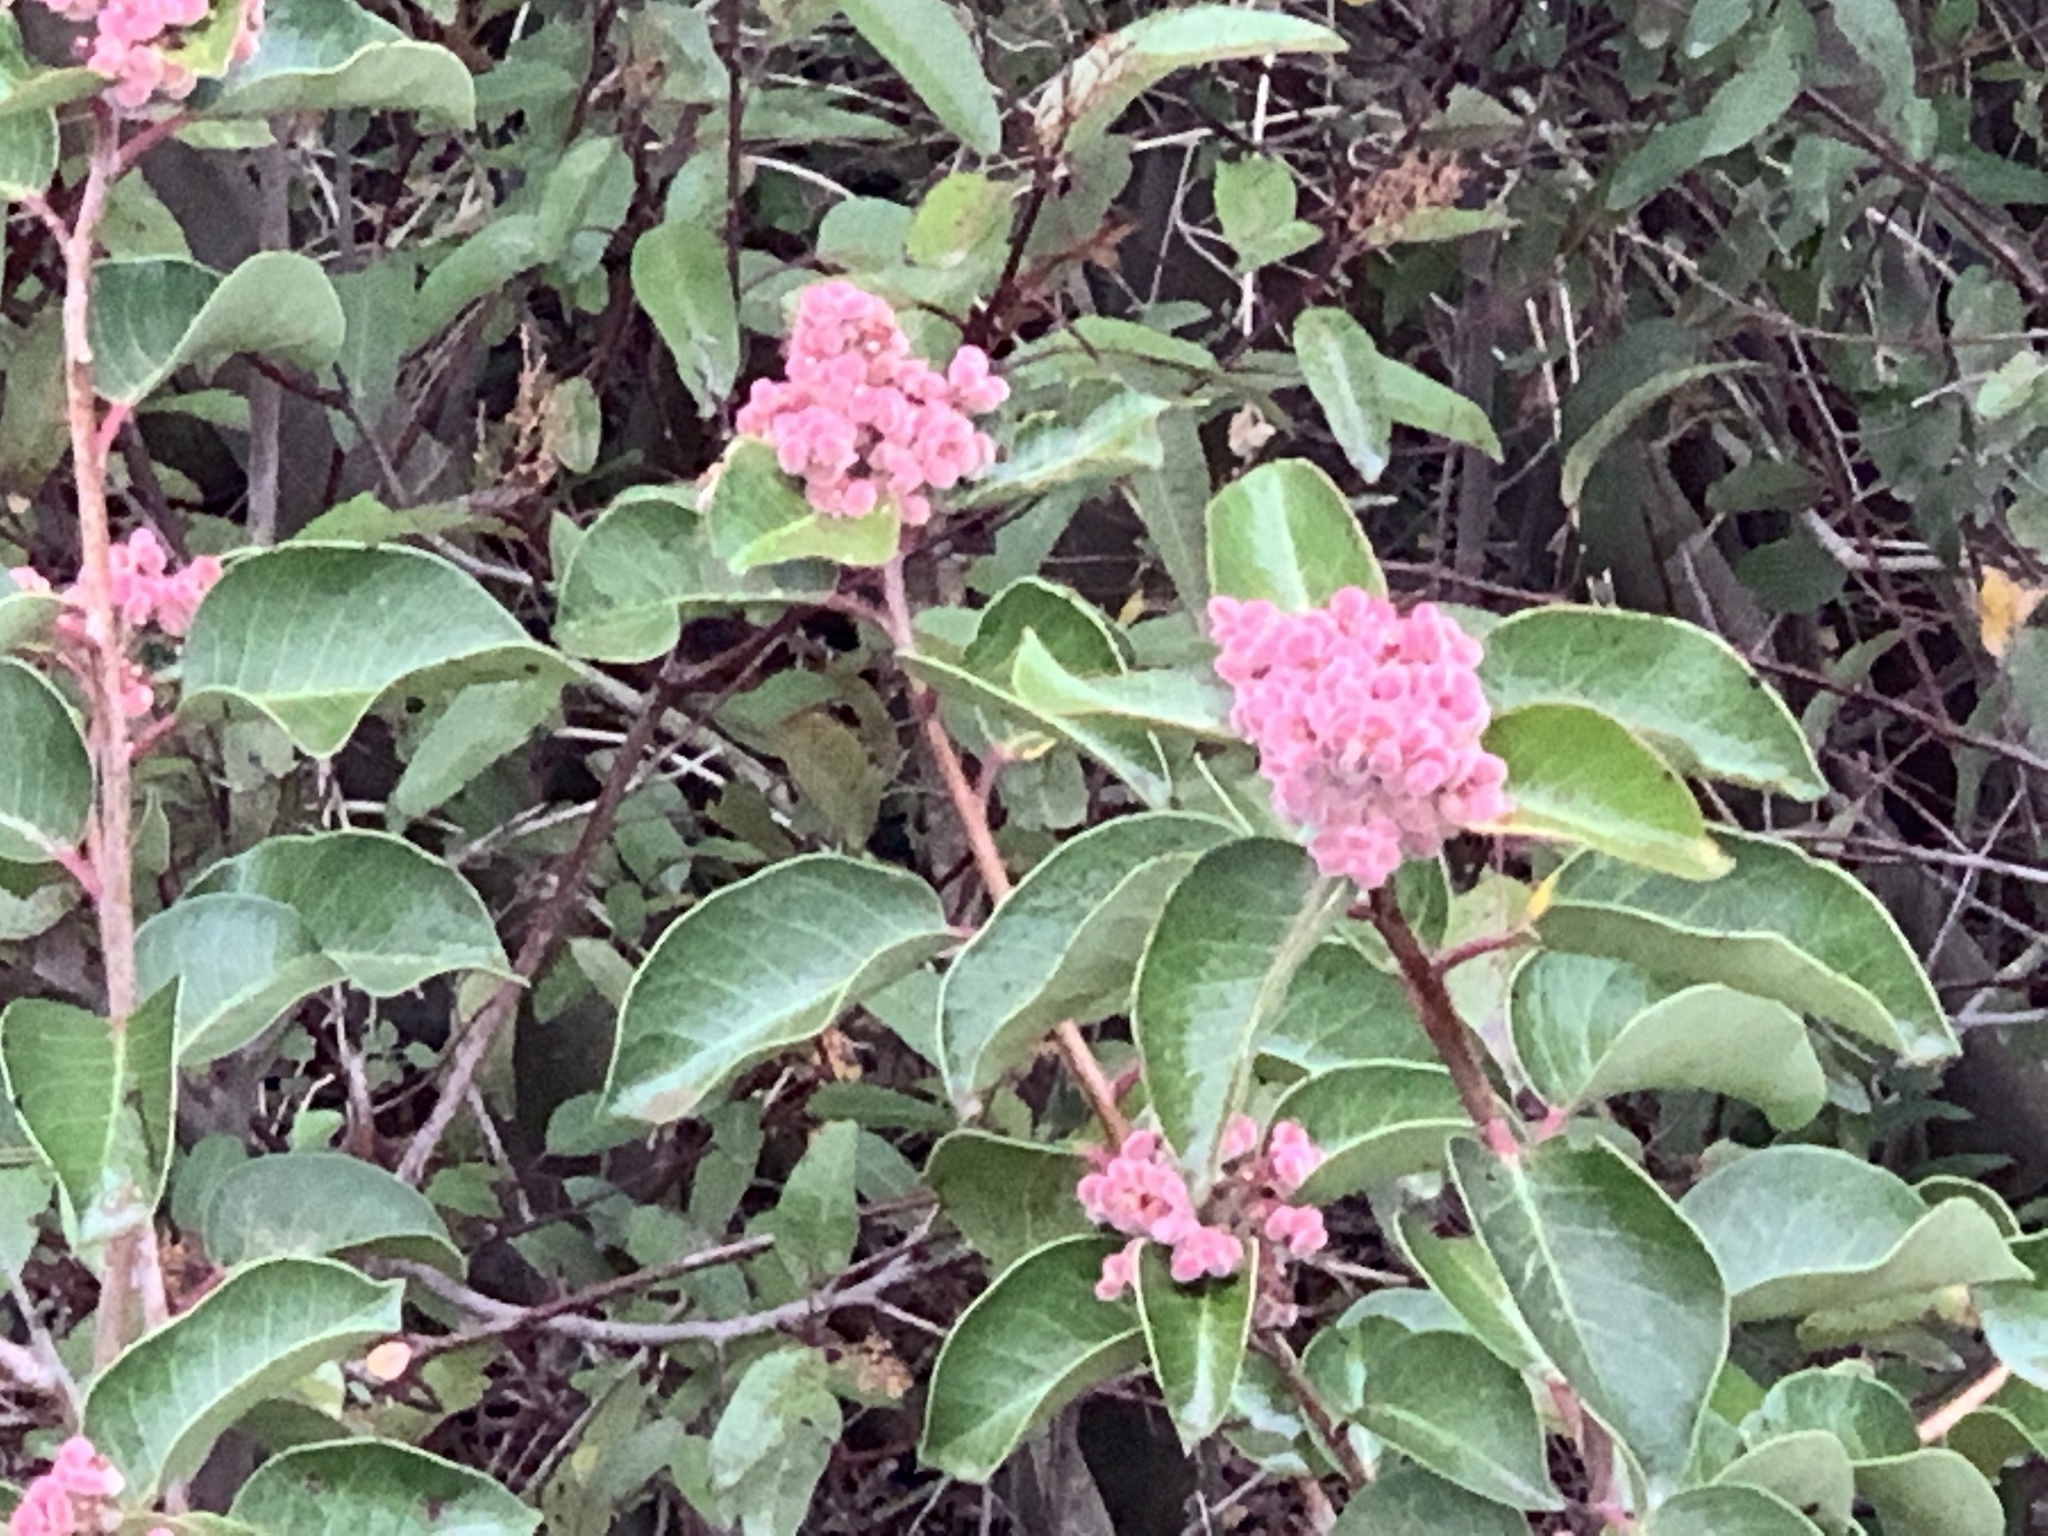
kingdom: Plantae
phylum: Tracheophyta
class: Magnoliopsida
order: Sapindales
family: Anacardiaceae
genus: Rhus
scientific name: Rhus ovata
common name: Sugar sumac
